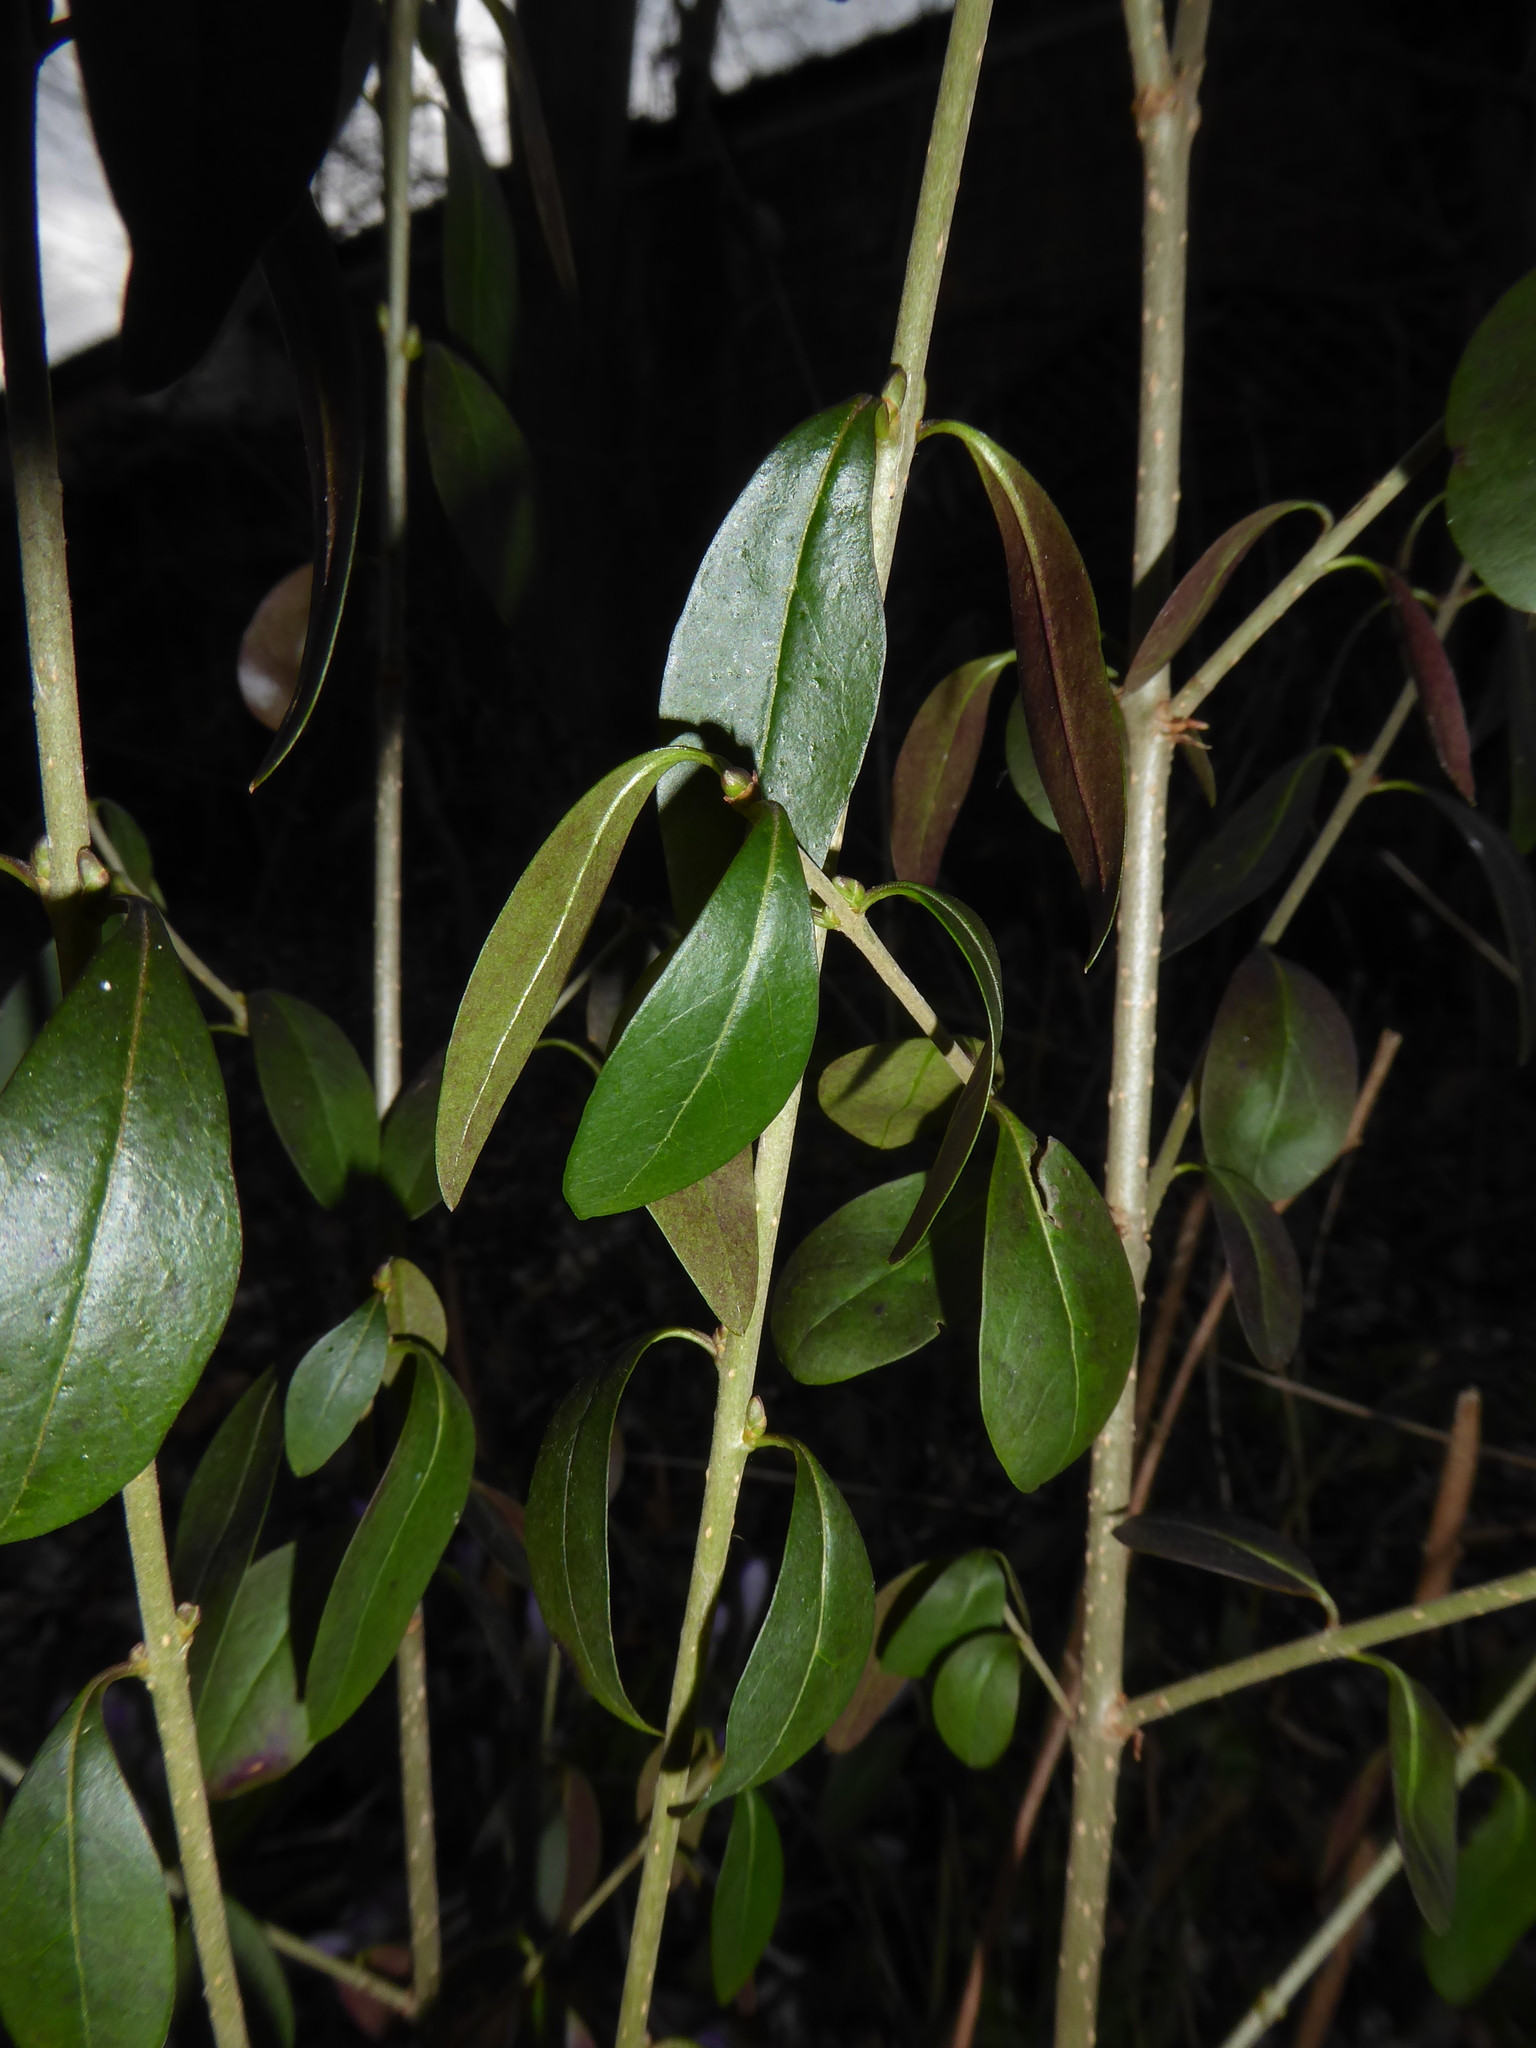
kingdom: Plantae
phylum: Tracheophyta
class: Magnoliopsida
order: Lamiales
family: Oleaceae
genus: Ligustrum
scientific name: Ligustrum vulgare
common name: Wild privet
